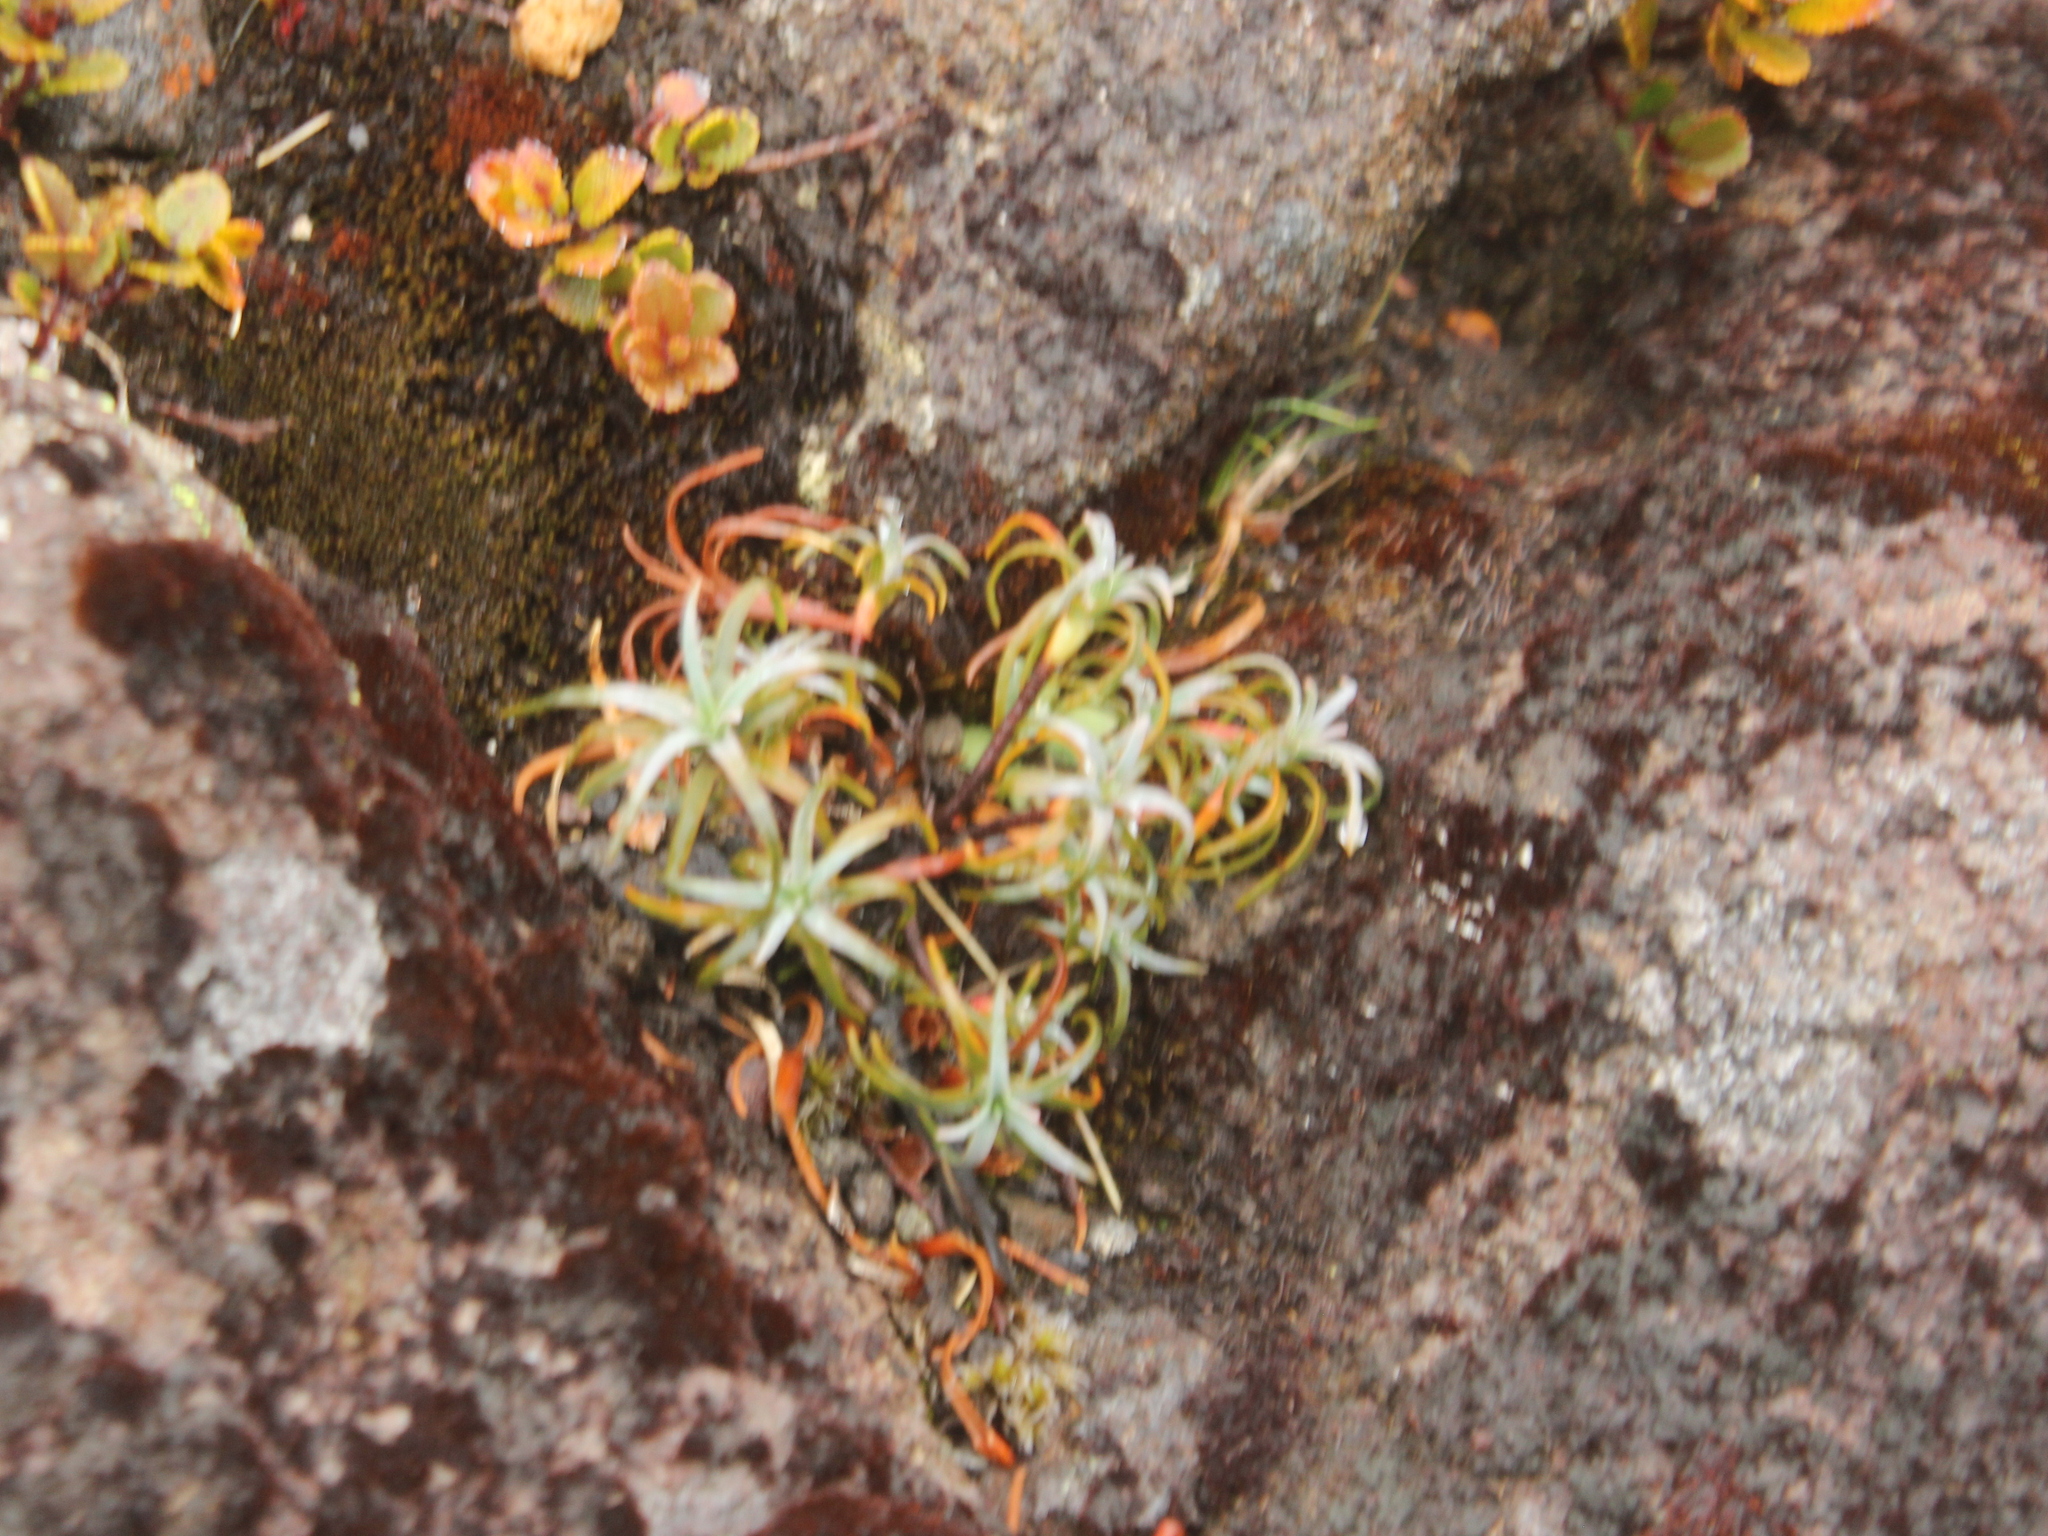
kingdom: Plantae
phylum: Tracheophyta
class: Magnoliopsida
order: Ericales
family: Ericaceae
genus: Dracophyllum
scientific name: Dracophyllum recurvum
